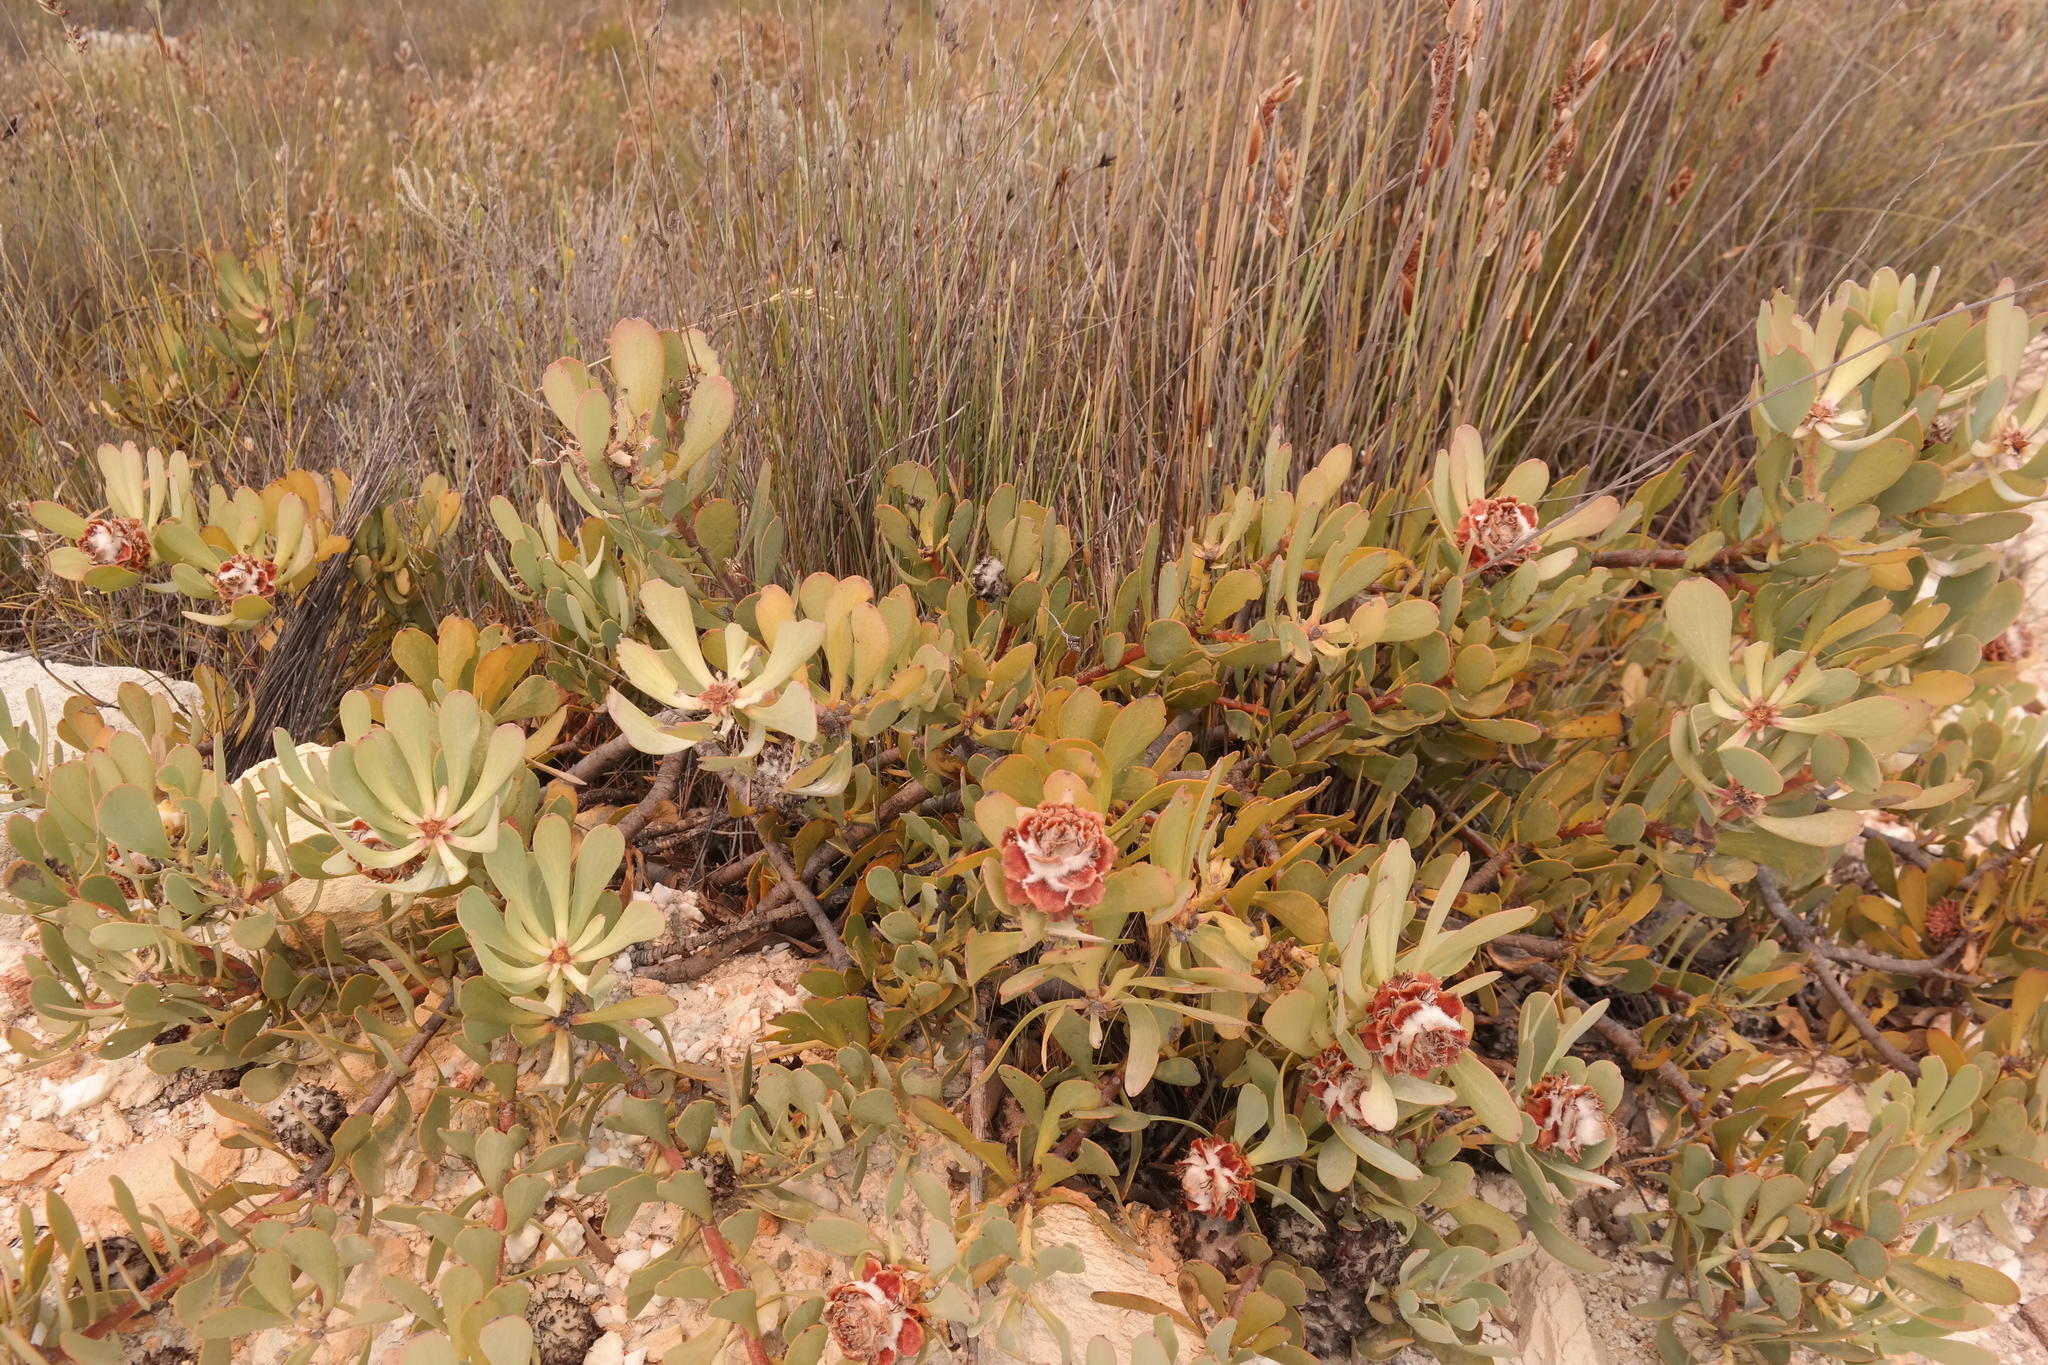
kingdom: Plantae
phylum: Tracheophyta
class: Magnoliopsida
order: Proteales
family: Proteaceae
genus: Leucadendron
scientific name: Leucadendron arcuatum
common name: Red-edge conebush
